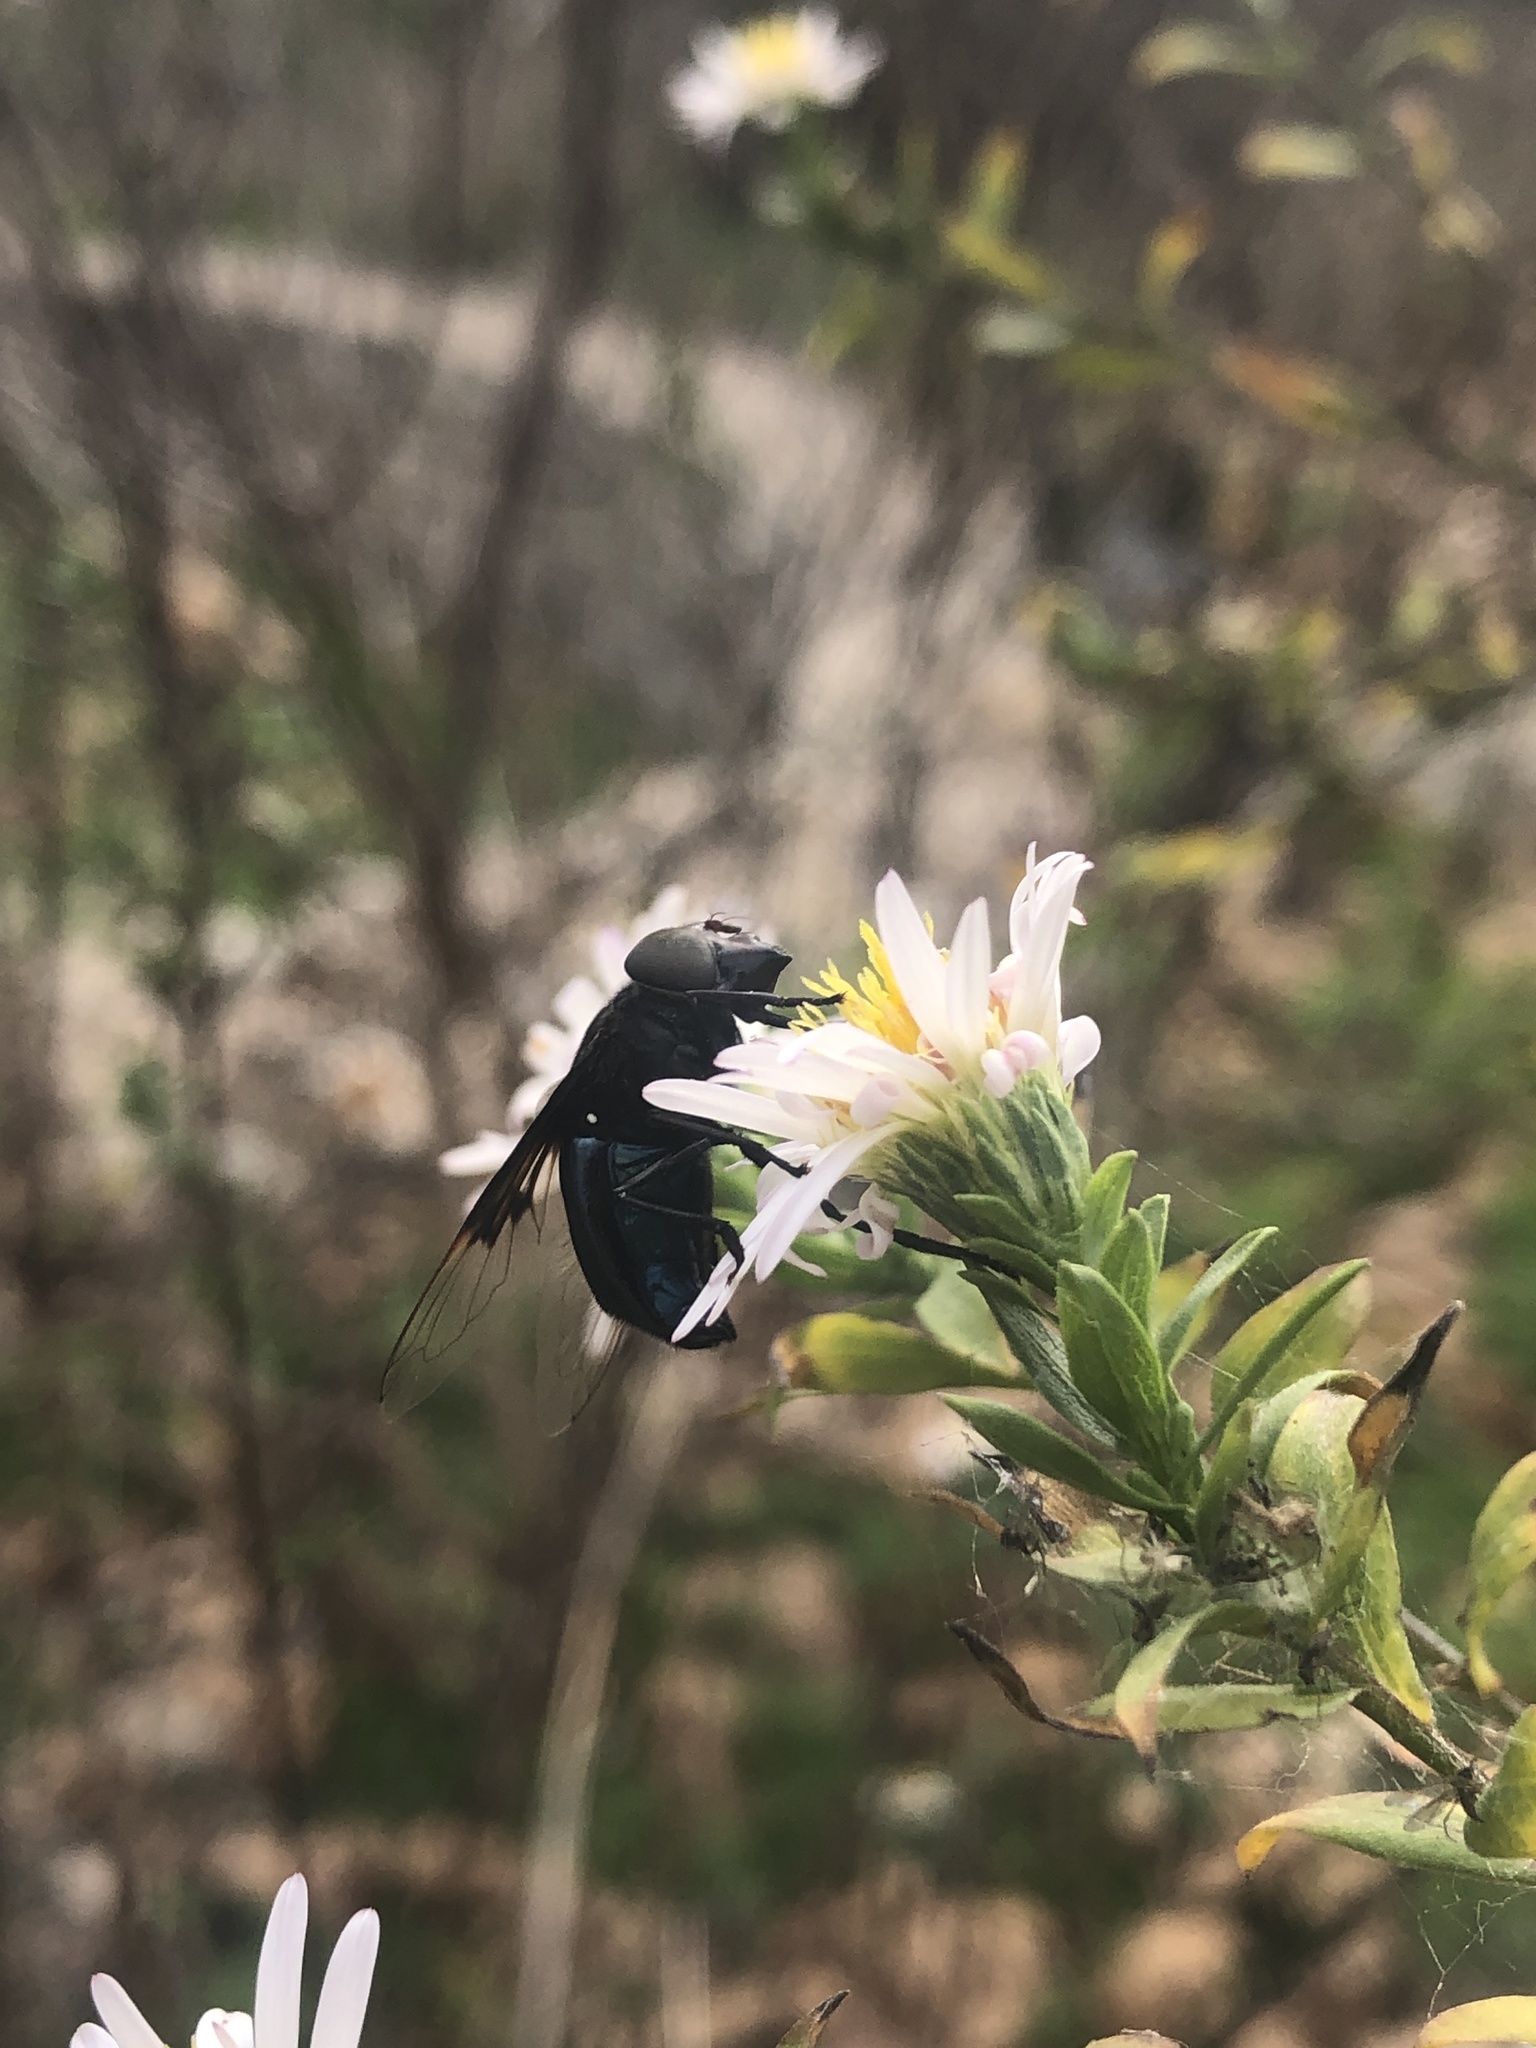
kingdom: Animalia
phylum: Arthropoda
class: Insecta
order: Diptera
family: Syrphidae
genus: Copestylum
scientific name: Copestylum mexicanum
